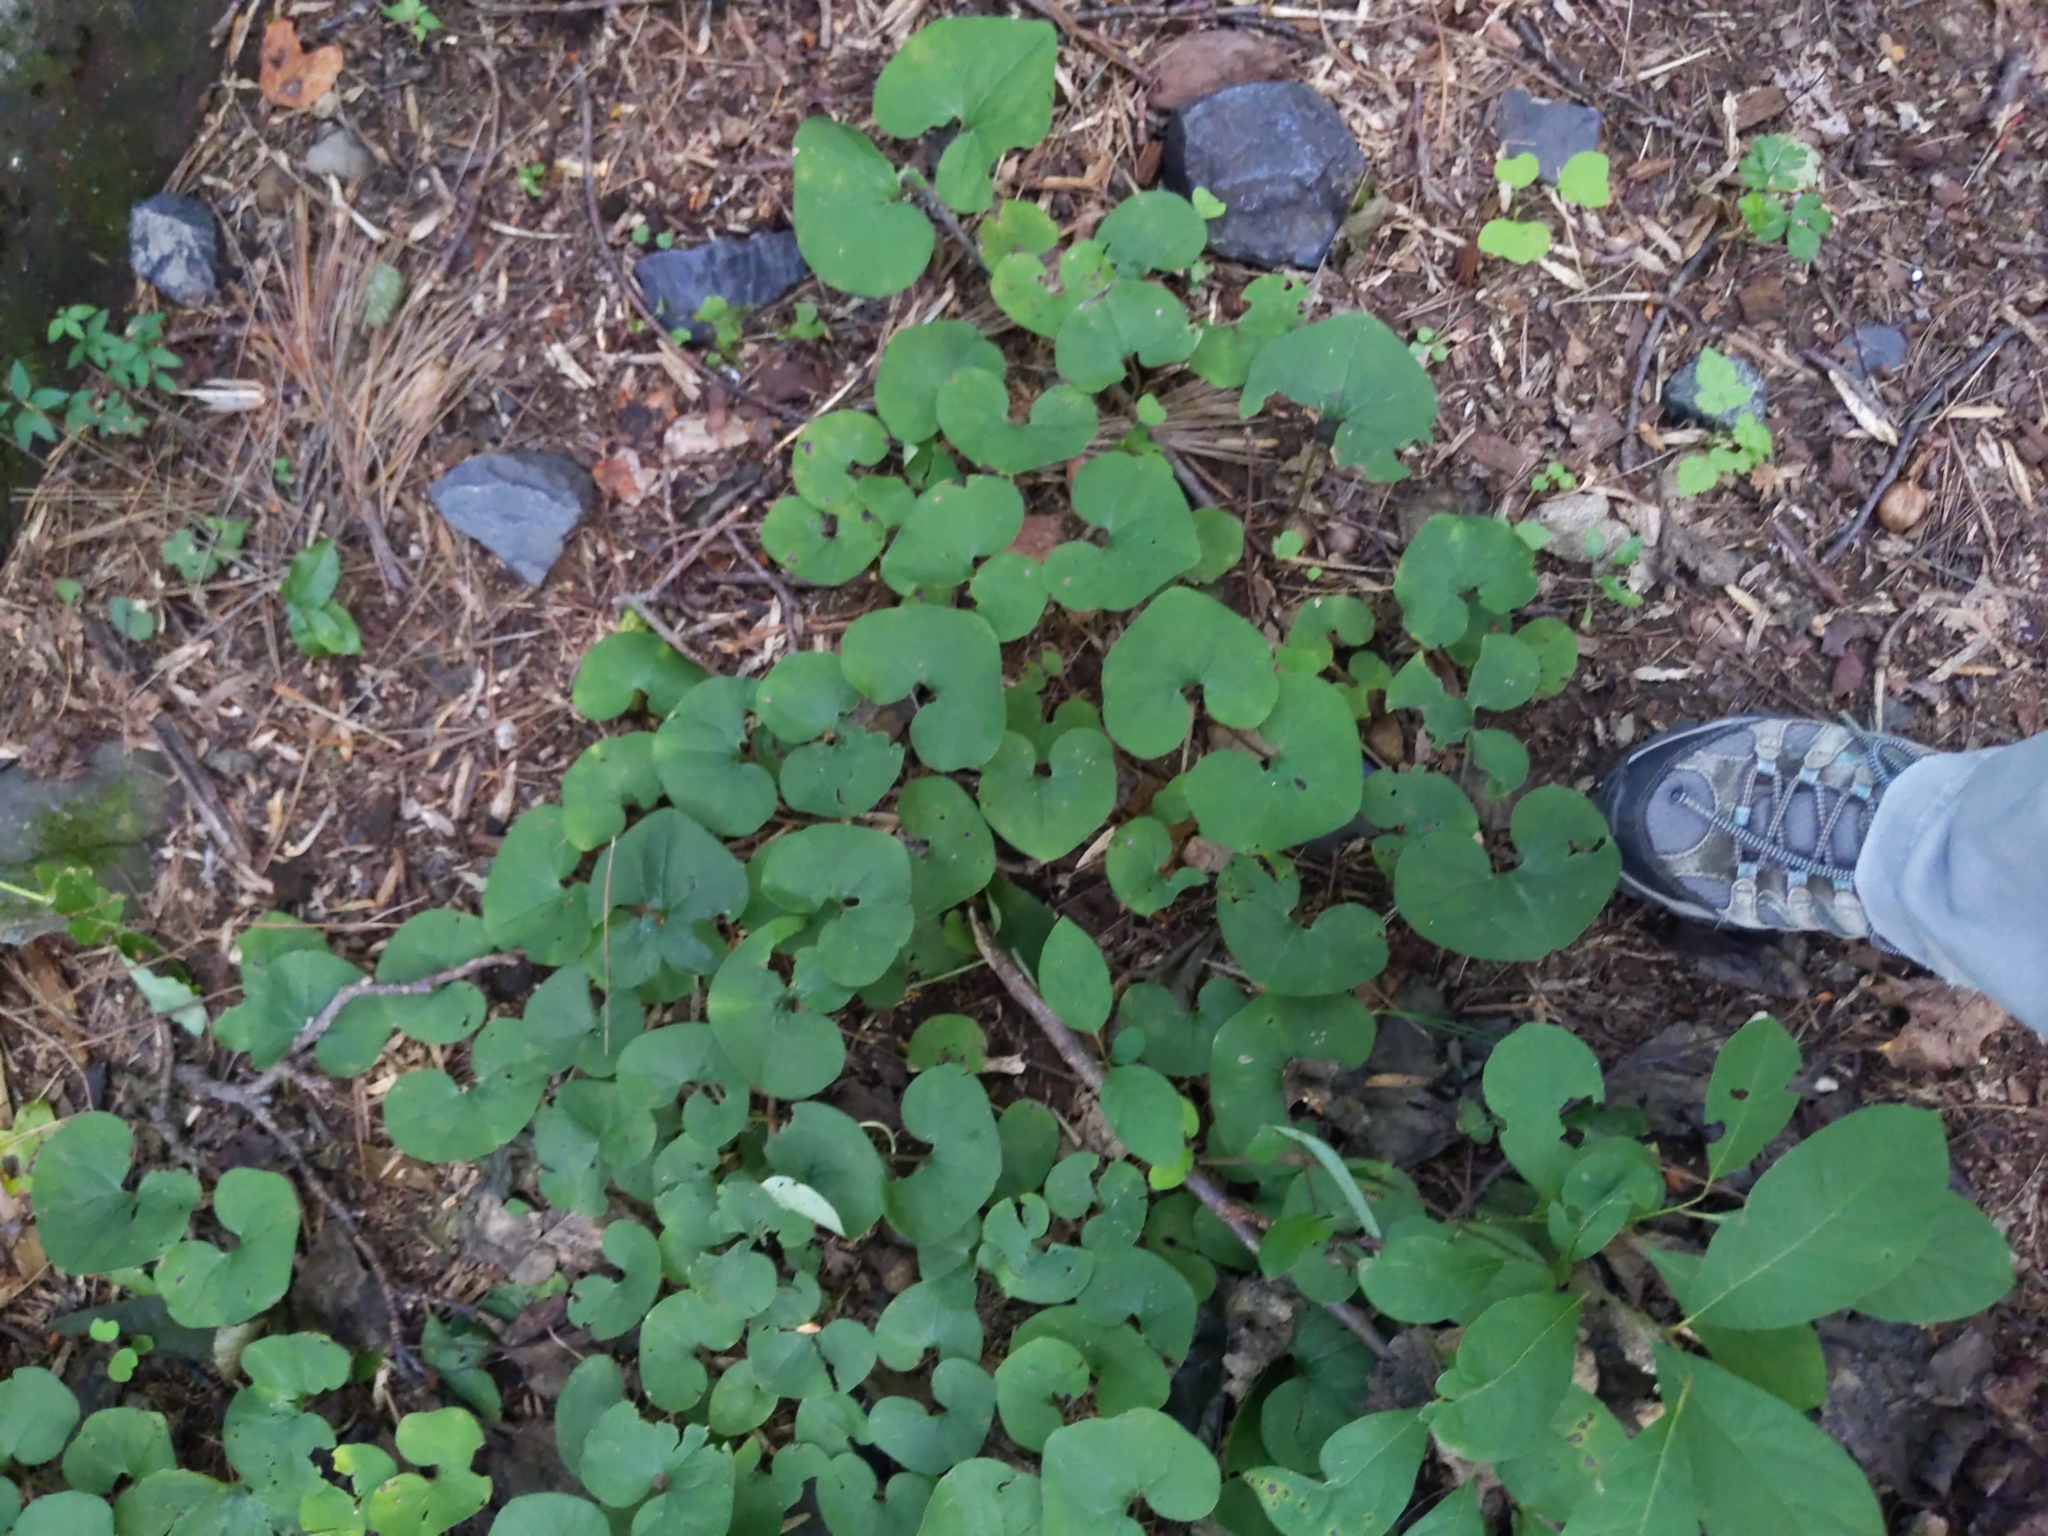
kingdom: Plantae
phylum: Tracheophyta
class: Magnoliopsida
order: Piperales
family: Aristolochiaceae
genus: Asarum
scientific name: Asarum canadense
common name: Wild ginger
